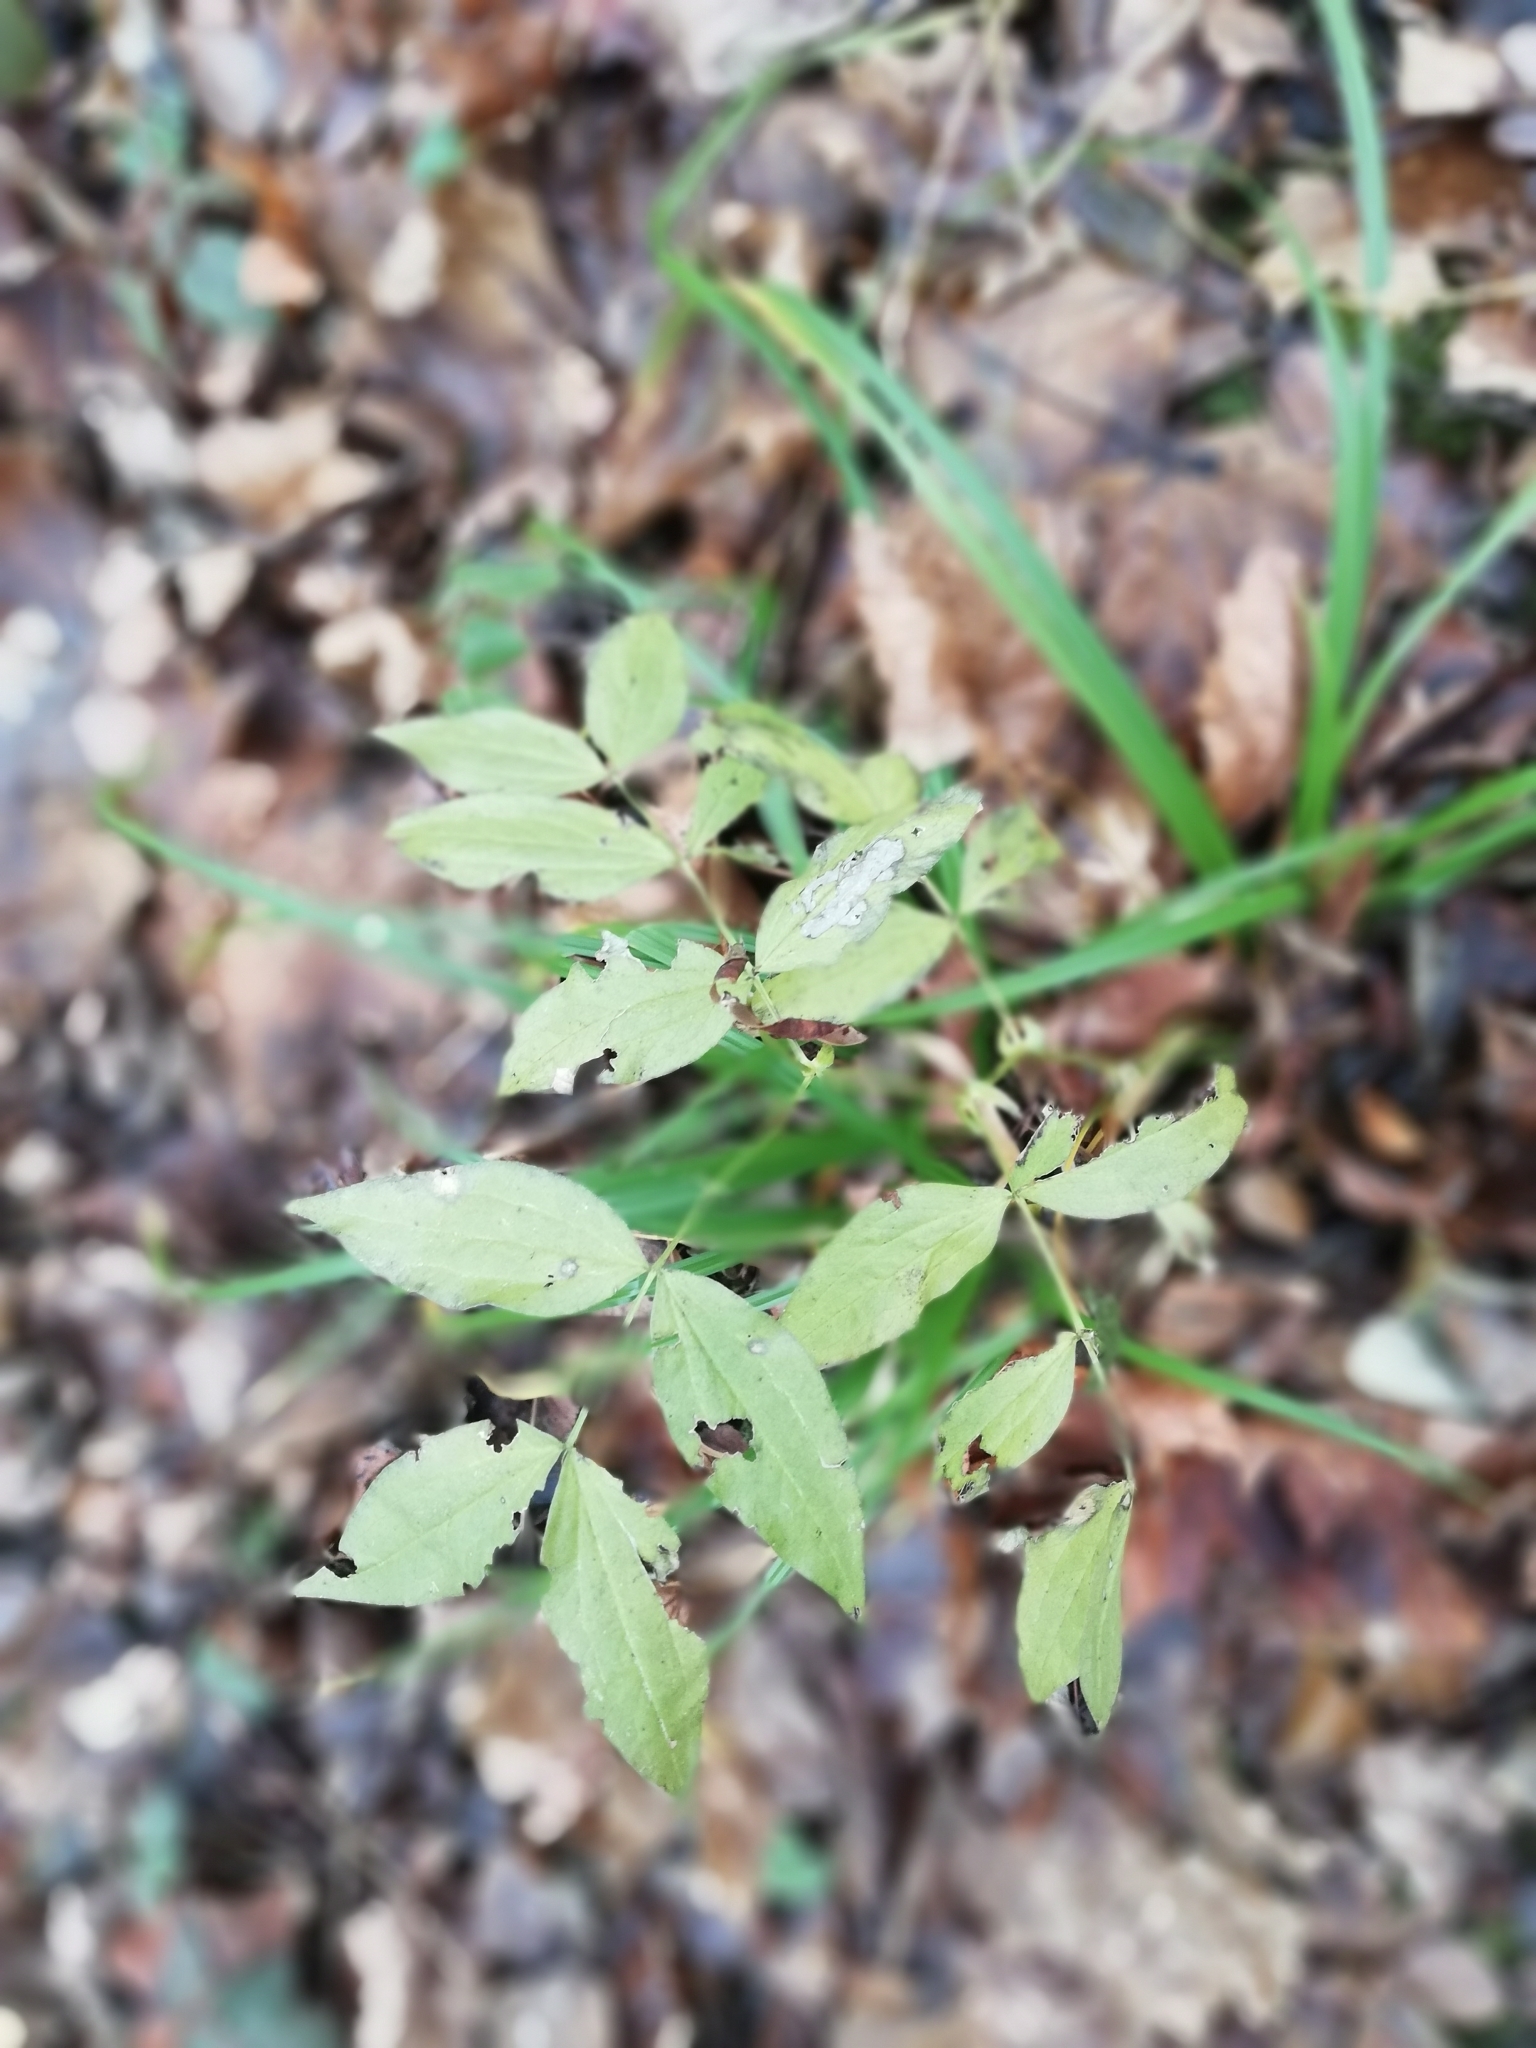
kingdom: Plantae
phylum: Tracheophyta
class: Magnoliopsida
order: Fabales
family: Fabaceae
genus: Lathyrus
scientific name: Lathyrus vernus
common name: Spring pea
